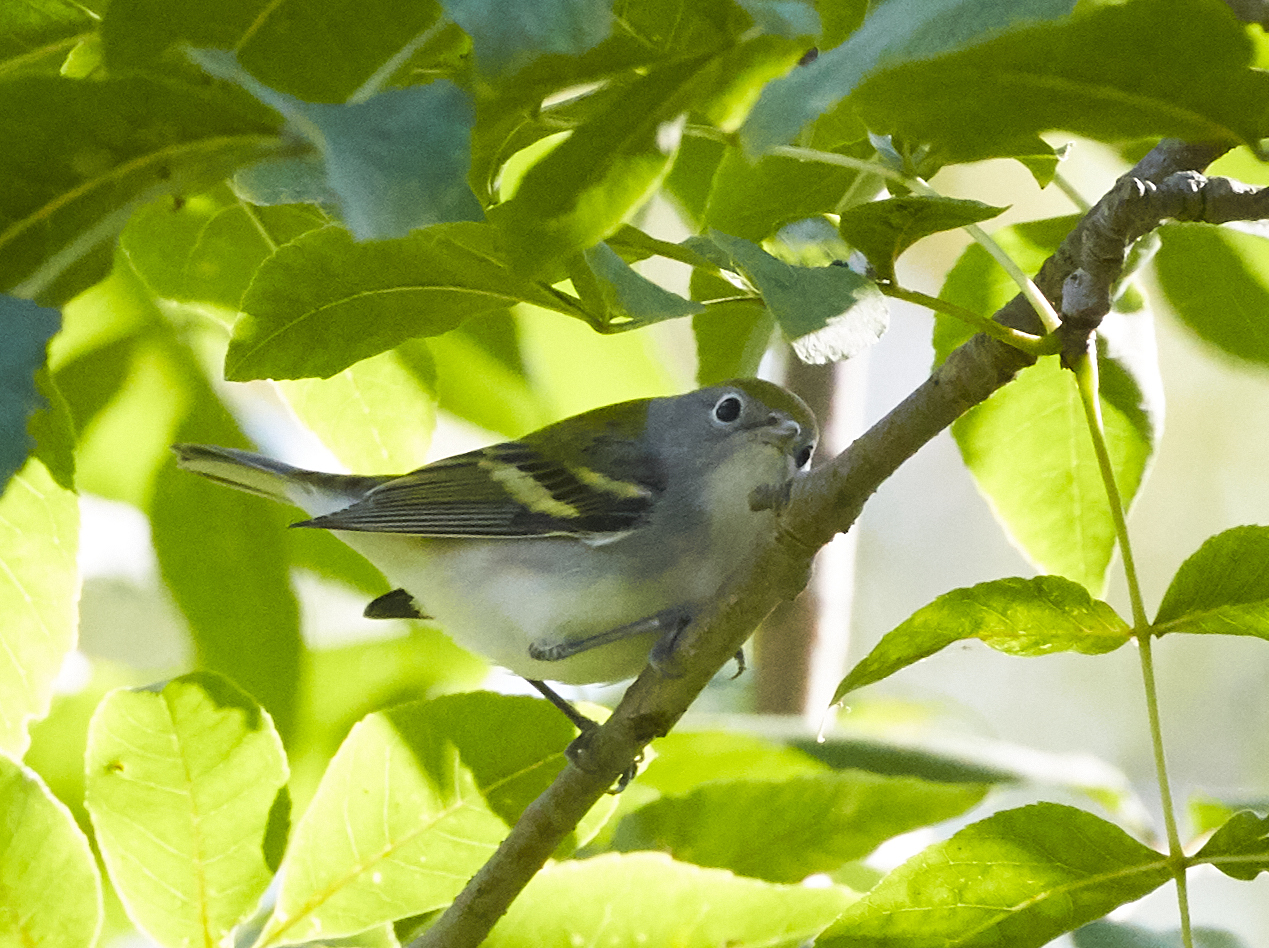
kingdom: Animalia
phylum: Chordata
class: Aves
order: Passeriformes
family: Parulidae
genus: Setophaga
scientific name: Setophaga pensylvanica
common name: Chestnut-sided warbler
